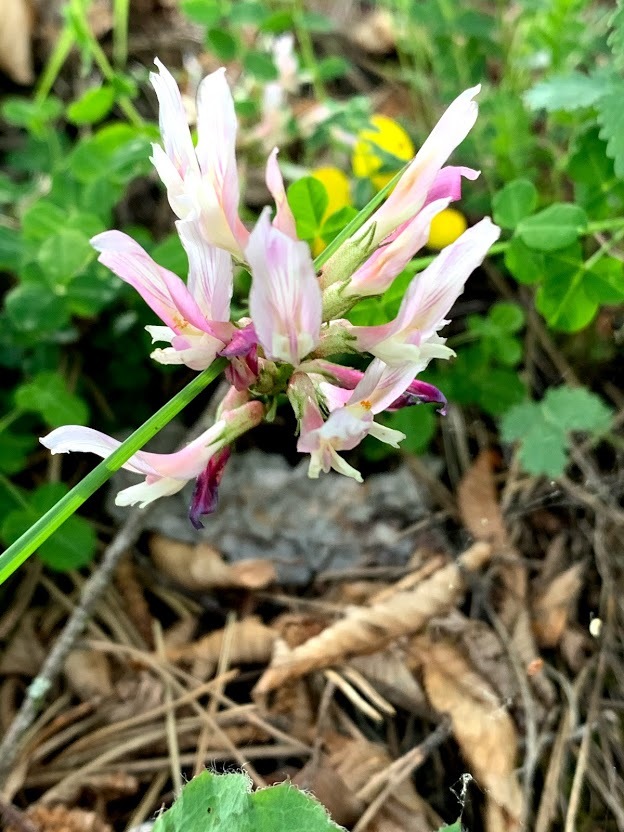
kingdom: Plantae
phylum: Tracheophyta
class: Magnoliopsida
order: Fabales
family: Fabaceae
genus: Astragalus
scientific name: Astragalus monspessulanus
